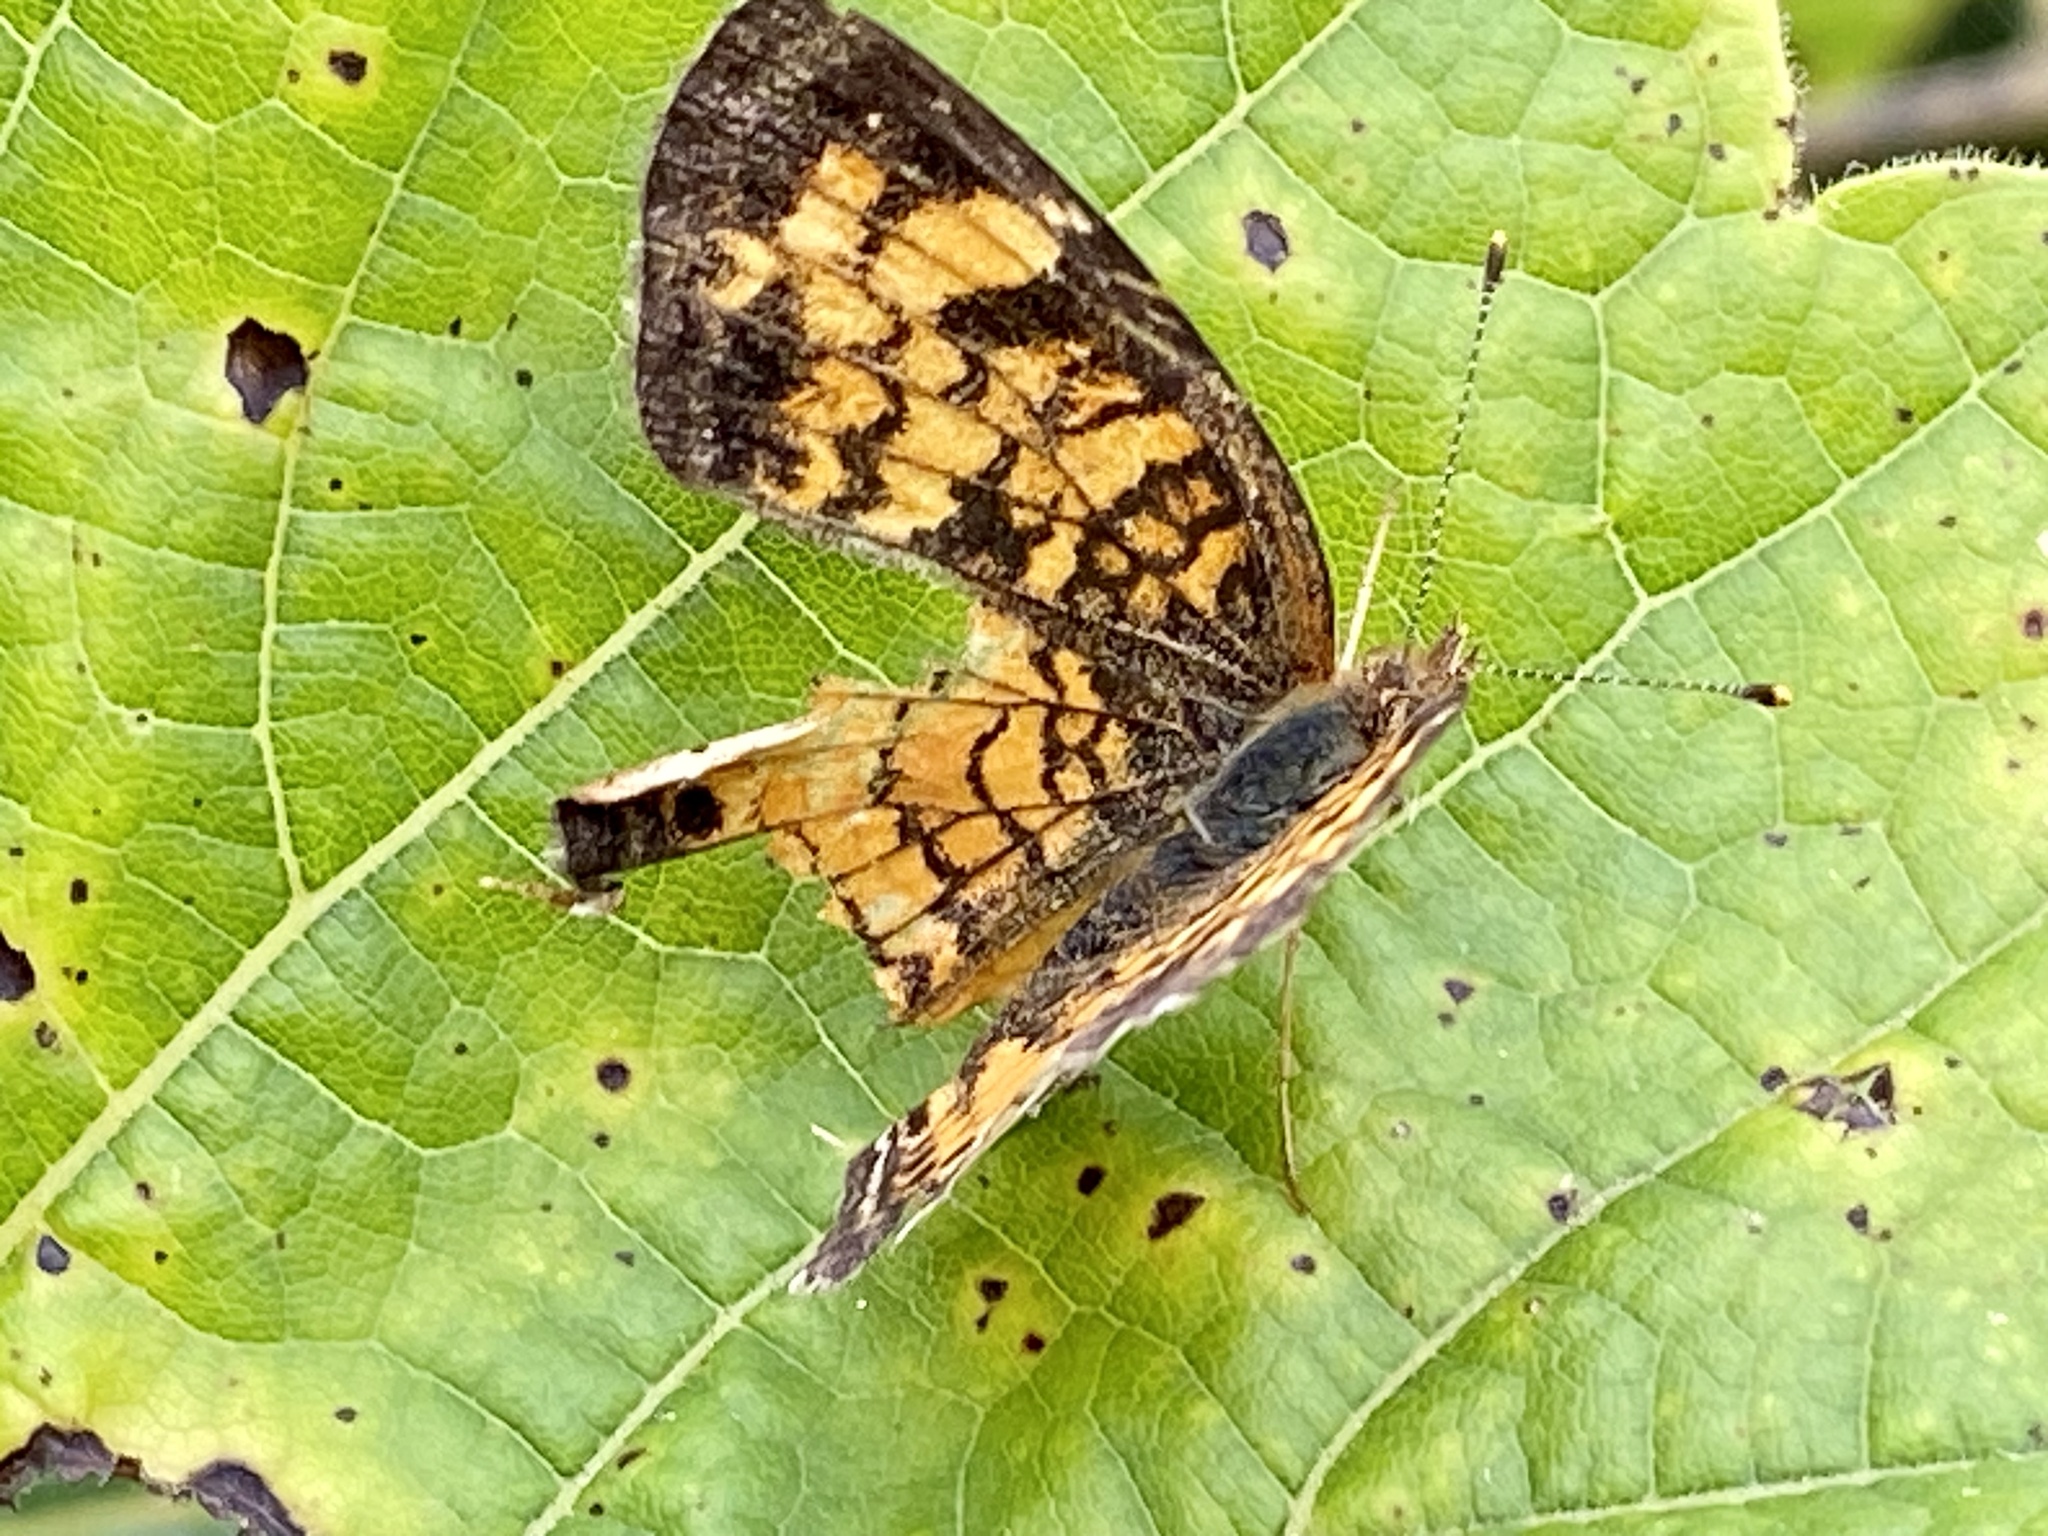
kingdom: Animalia
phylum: Arthropoda
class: Insecta
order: Lepidoptera
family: Nymphalidae
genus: Phyciodes
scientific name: Phyciodes tharos
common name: Pearl crescent
